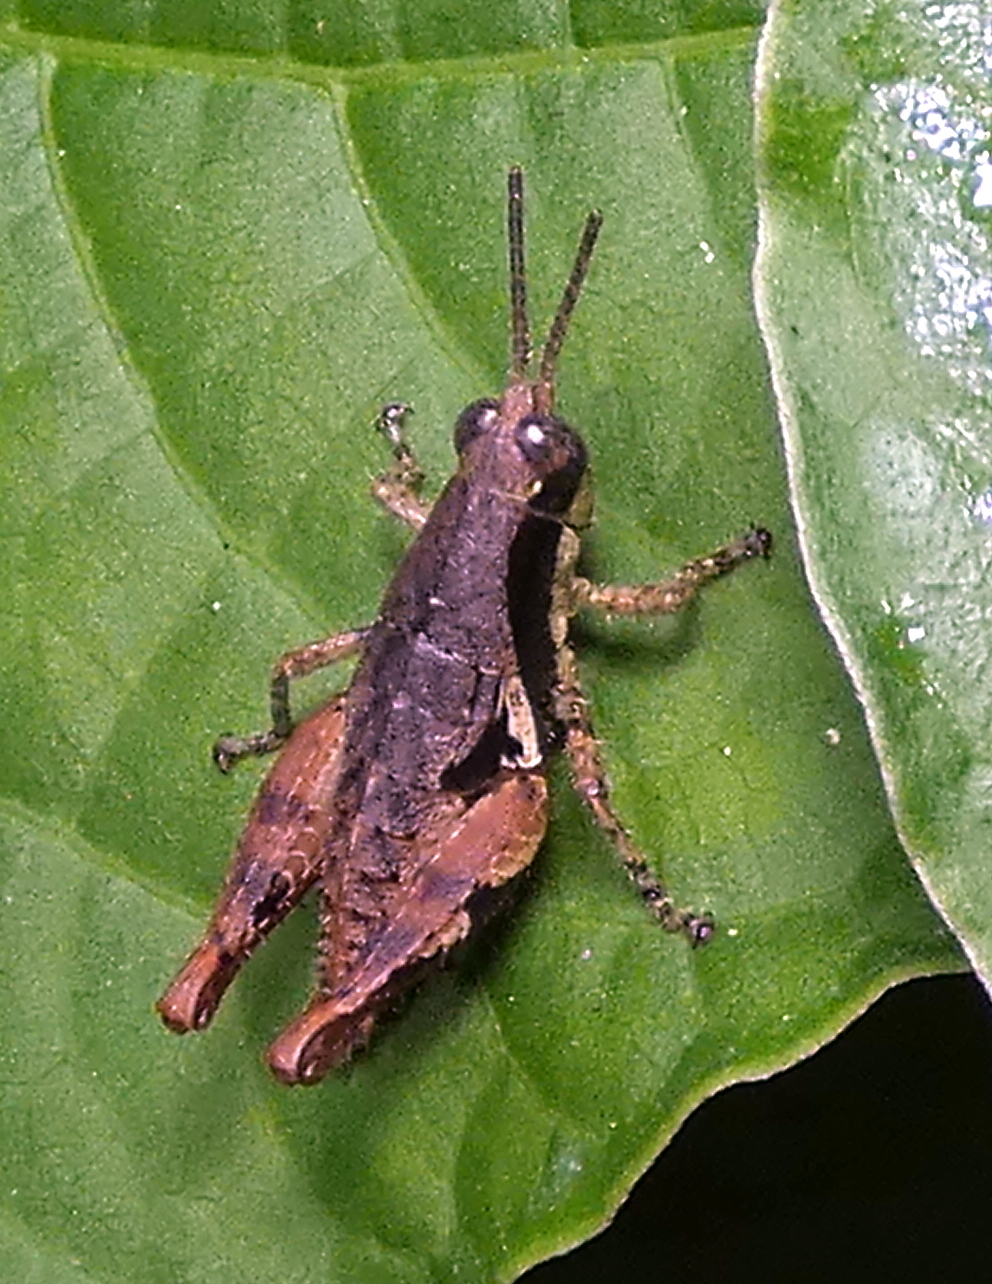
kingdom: Animalia
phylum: Arthropoda
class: Insecta
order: Orthoptera
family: Acrididae
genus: Eujivarus
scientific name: Eujivarus meridionalis
